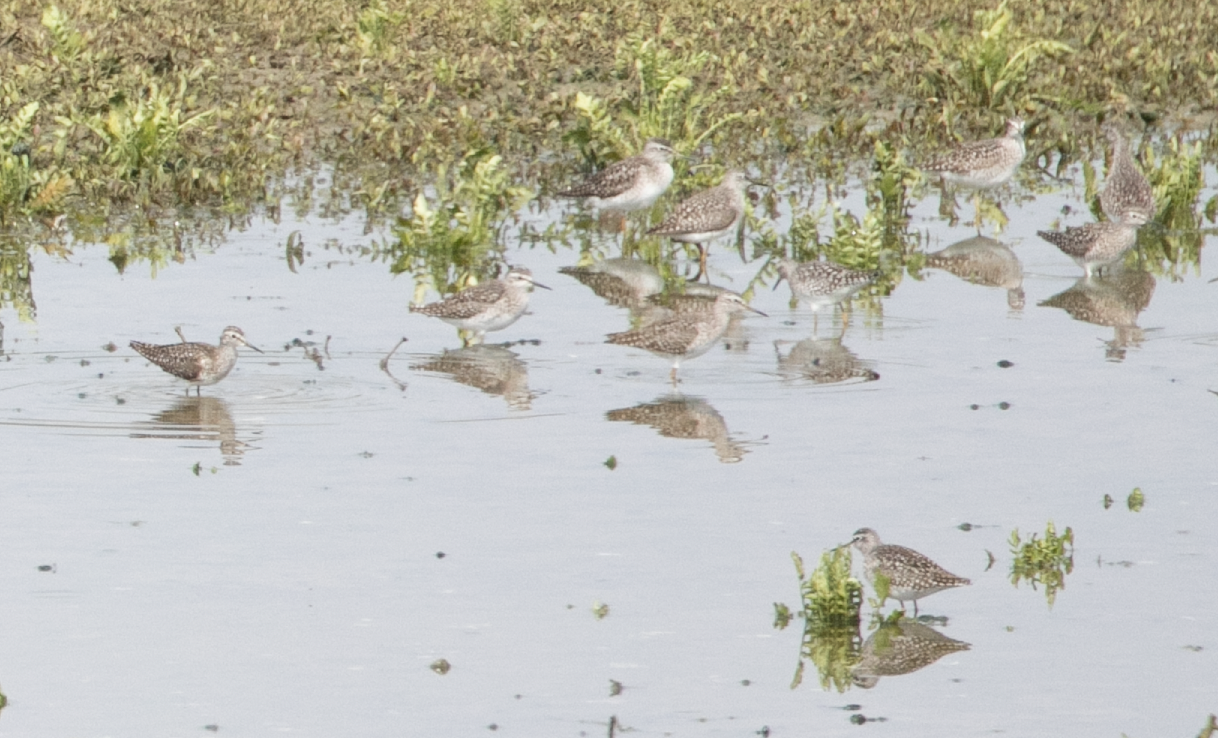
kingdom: Animalia
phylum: Chordata
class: Aves
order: Charadriiformes
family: Scolopacidae
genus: Tringa
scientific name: Tringa glareola
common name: Wood sandpiper
